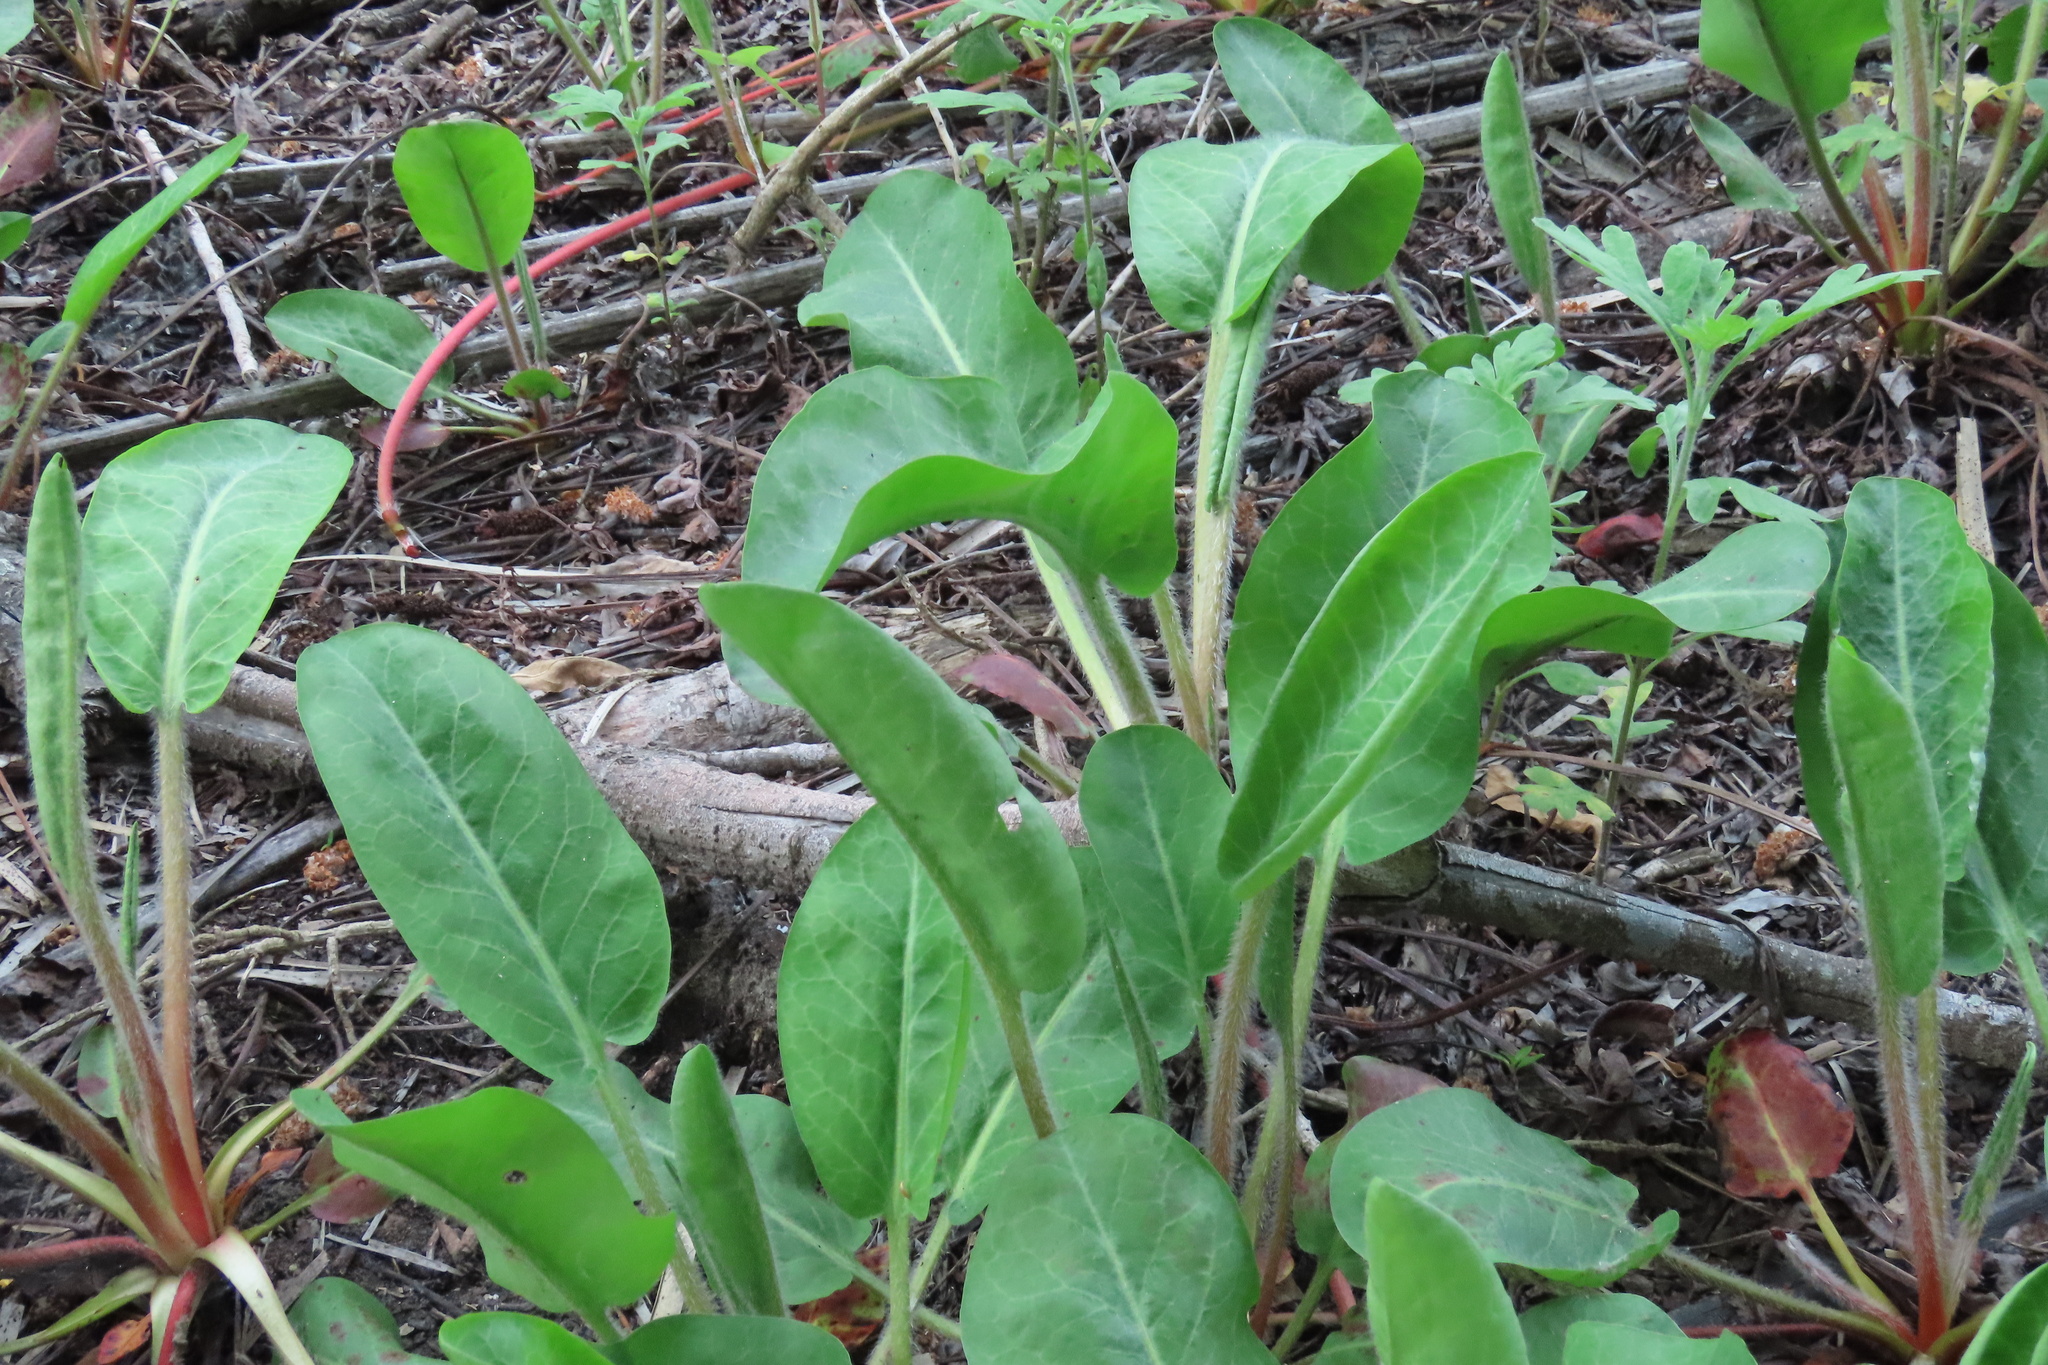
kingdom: Plantae
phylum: Tracheophyta
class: Magnoliopsida
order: Piperales
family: Saururaceae
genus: Anemopsis
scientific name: Anemopsis californica
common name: Apache-beads
